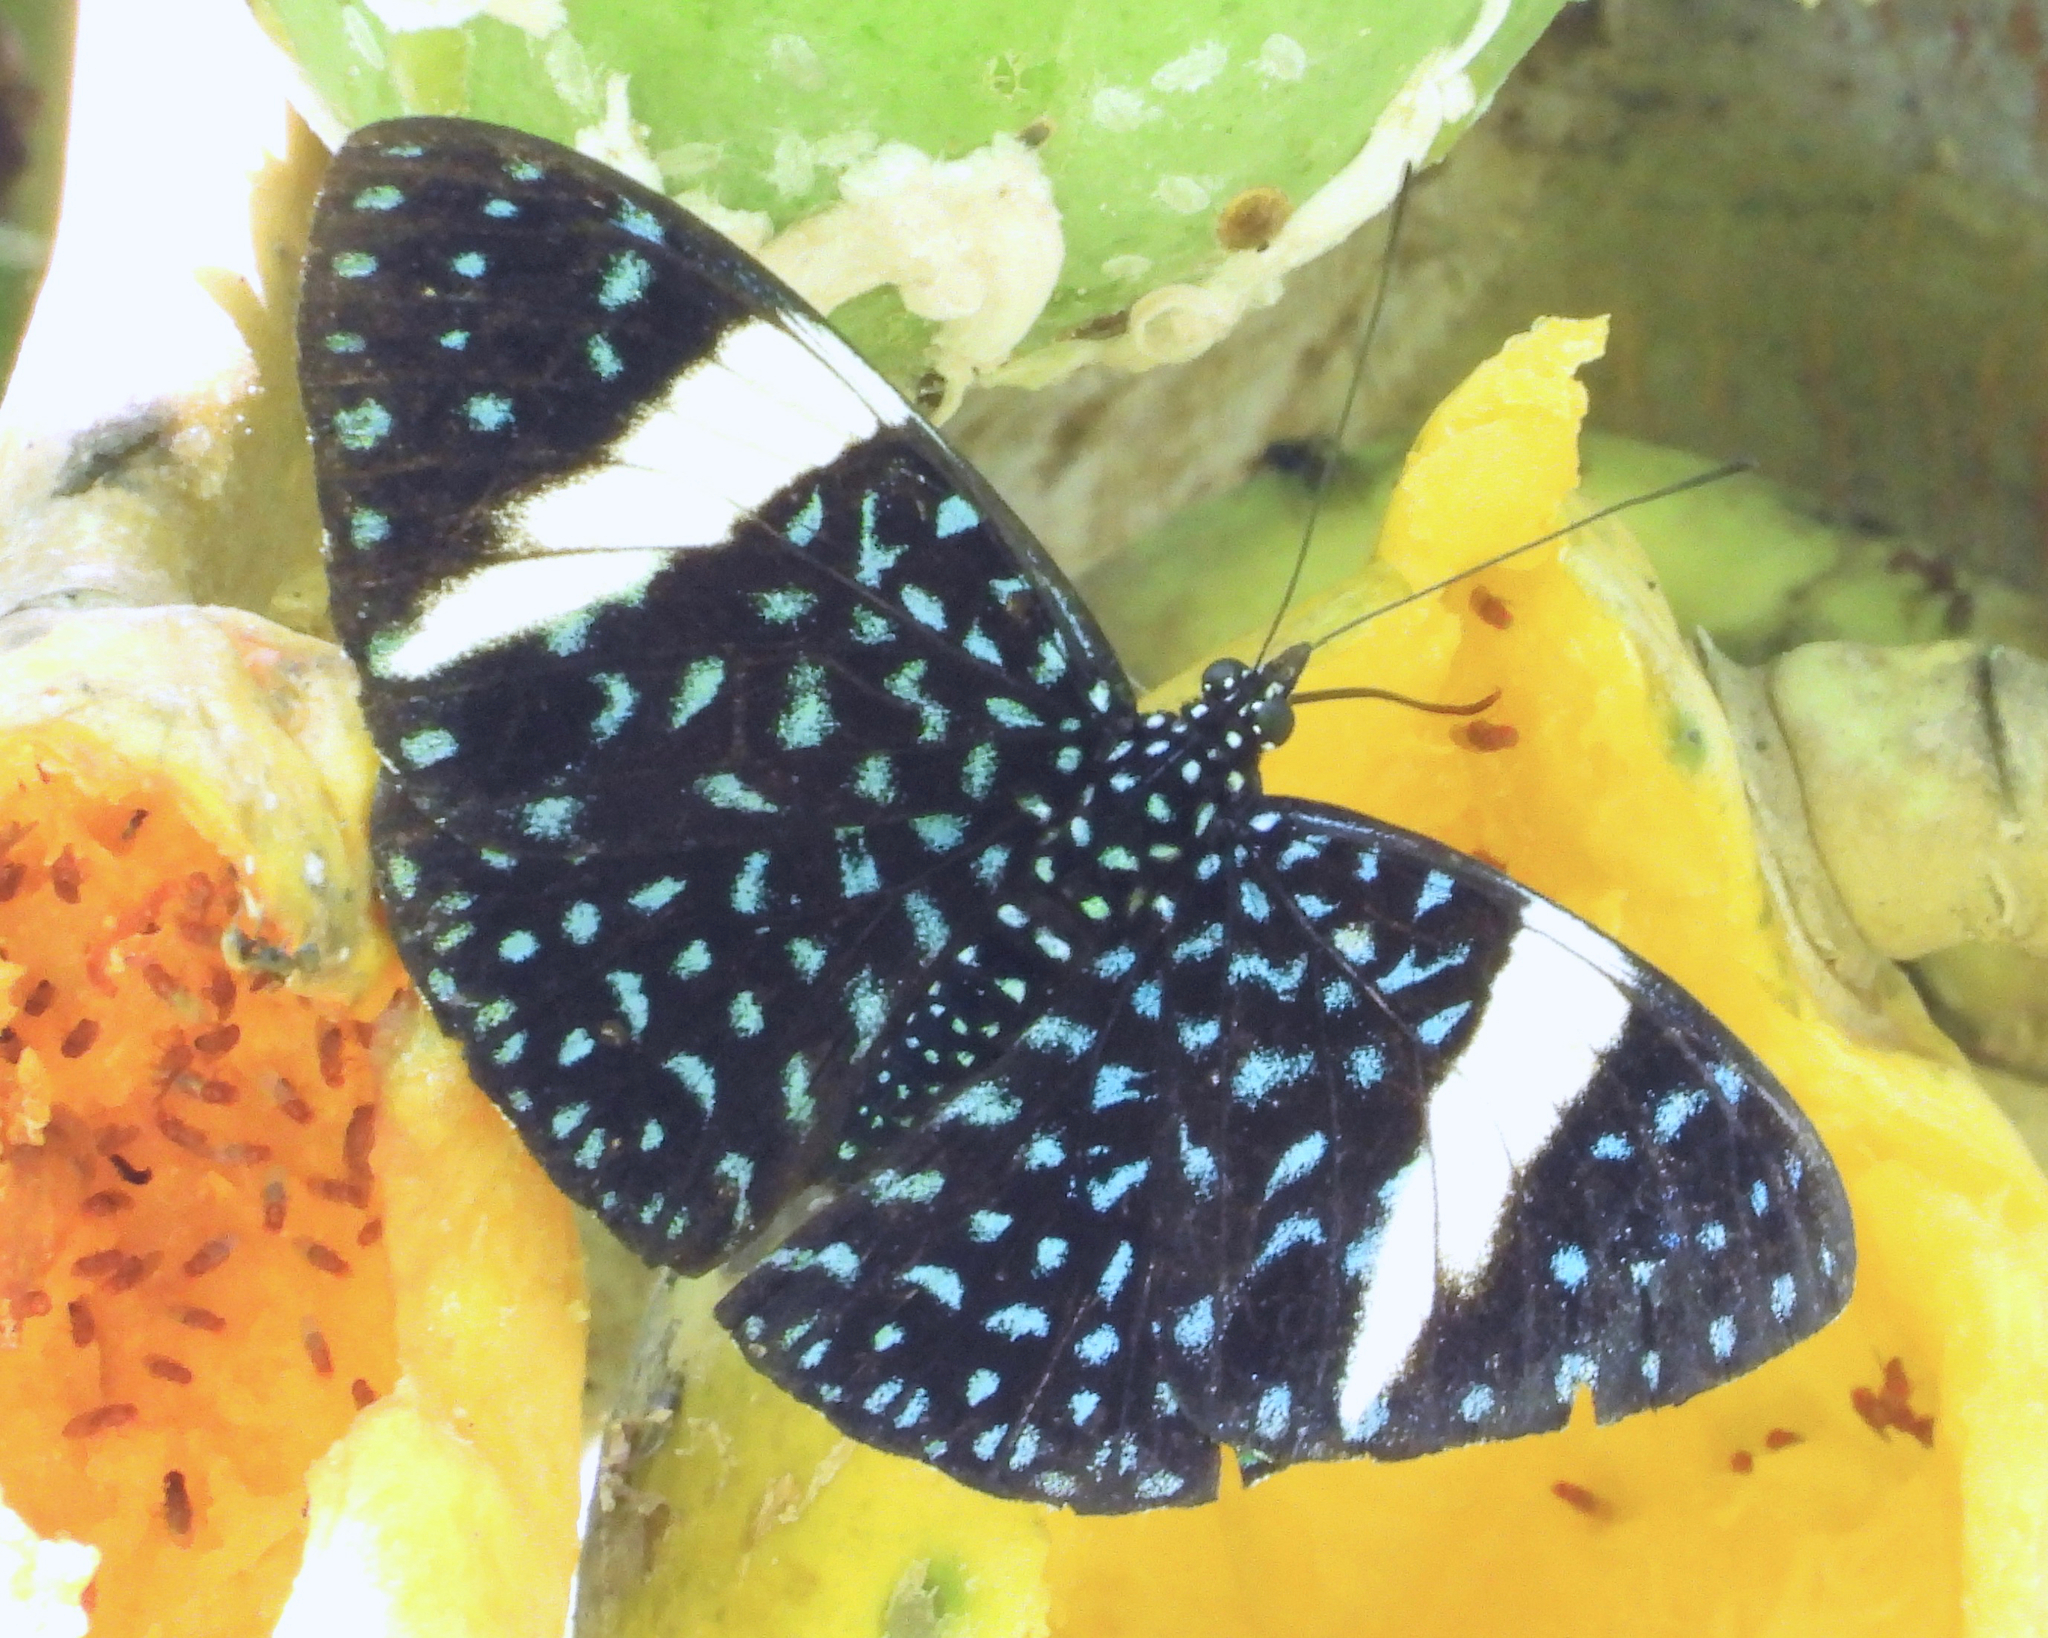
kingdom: Animalia
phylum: Arthropoda
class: Insecta
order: Lepidoptera
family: Nymphalidae
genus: Hamadryas
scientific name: Hamadryas laodamia
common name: Starry night cracker
